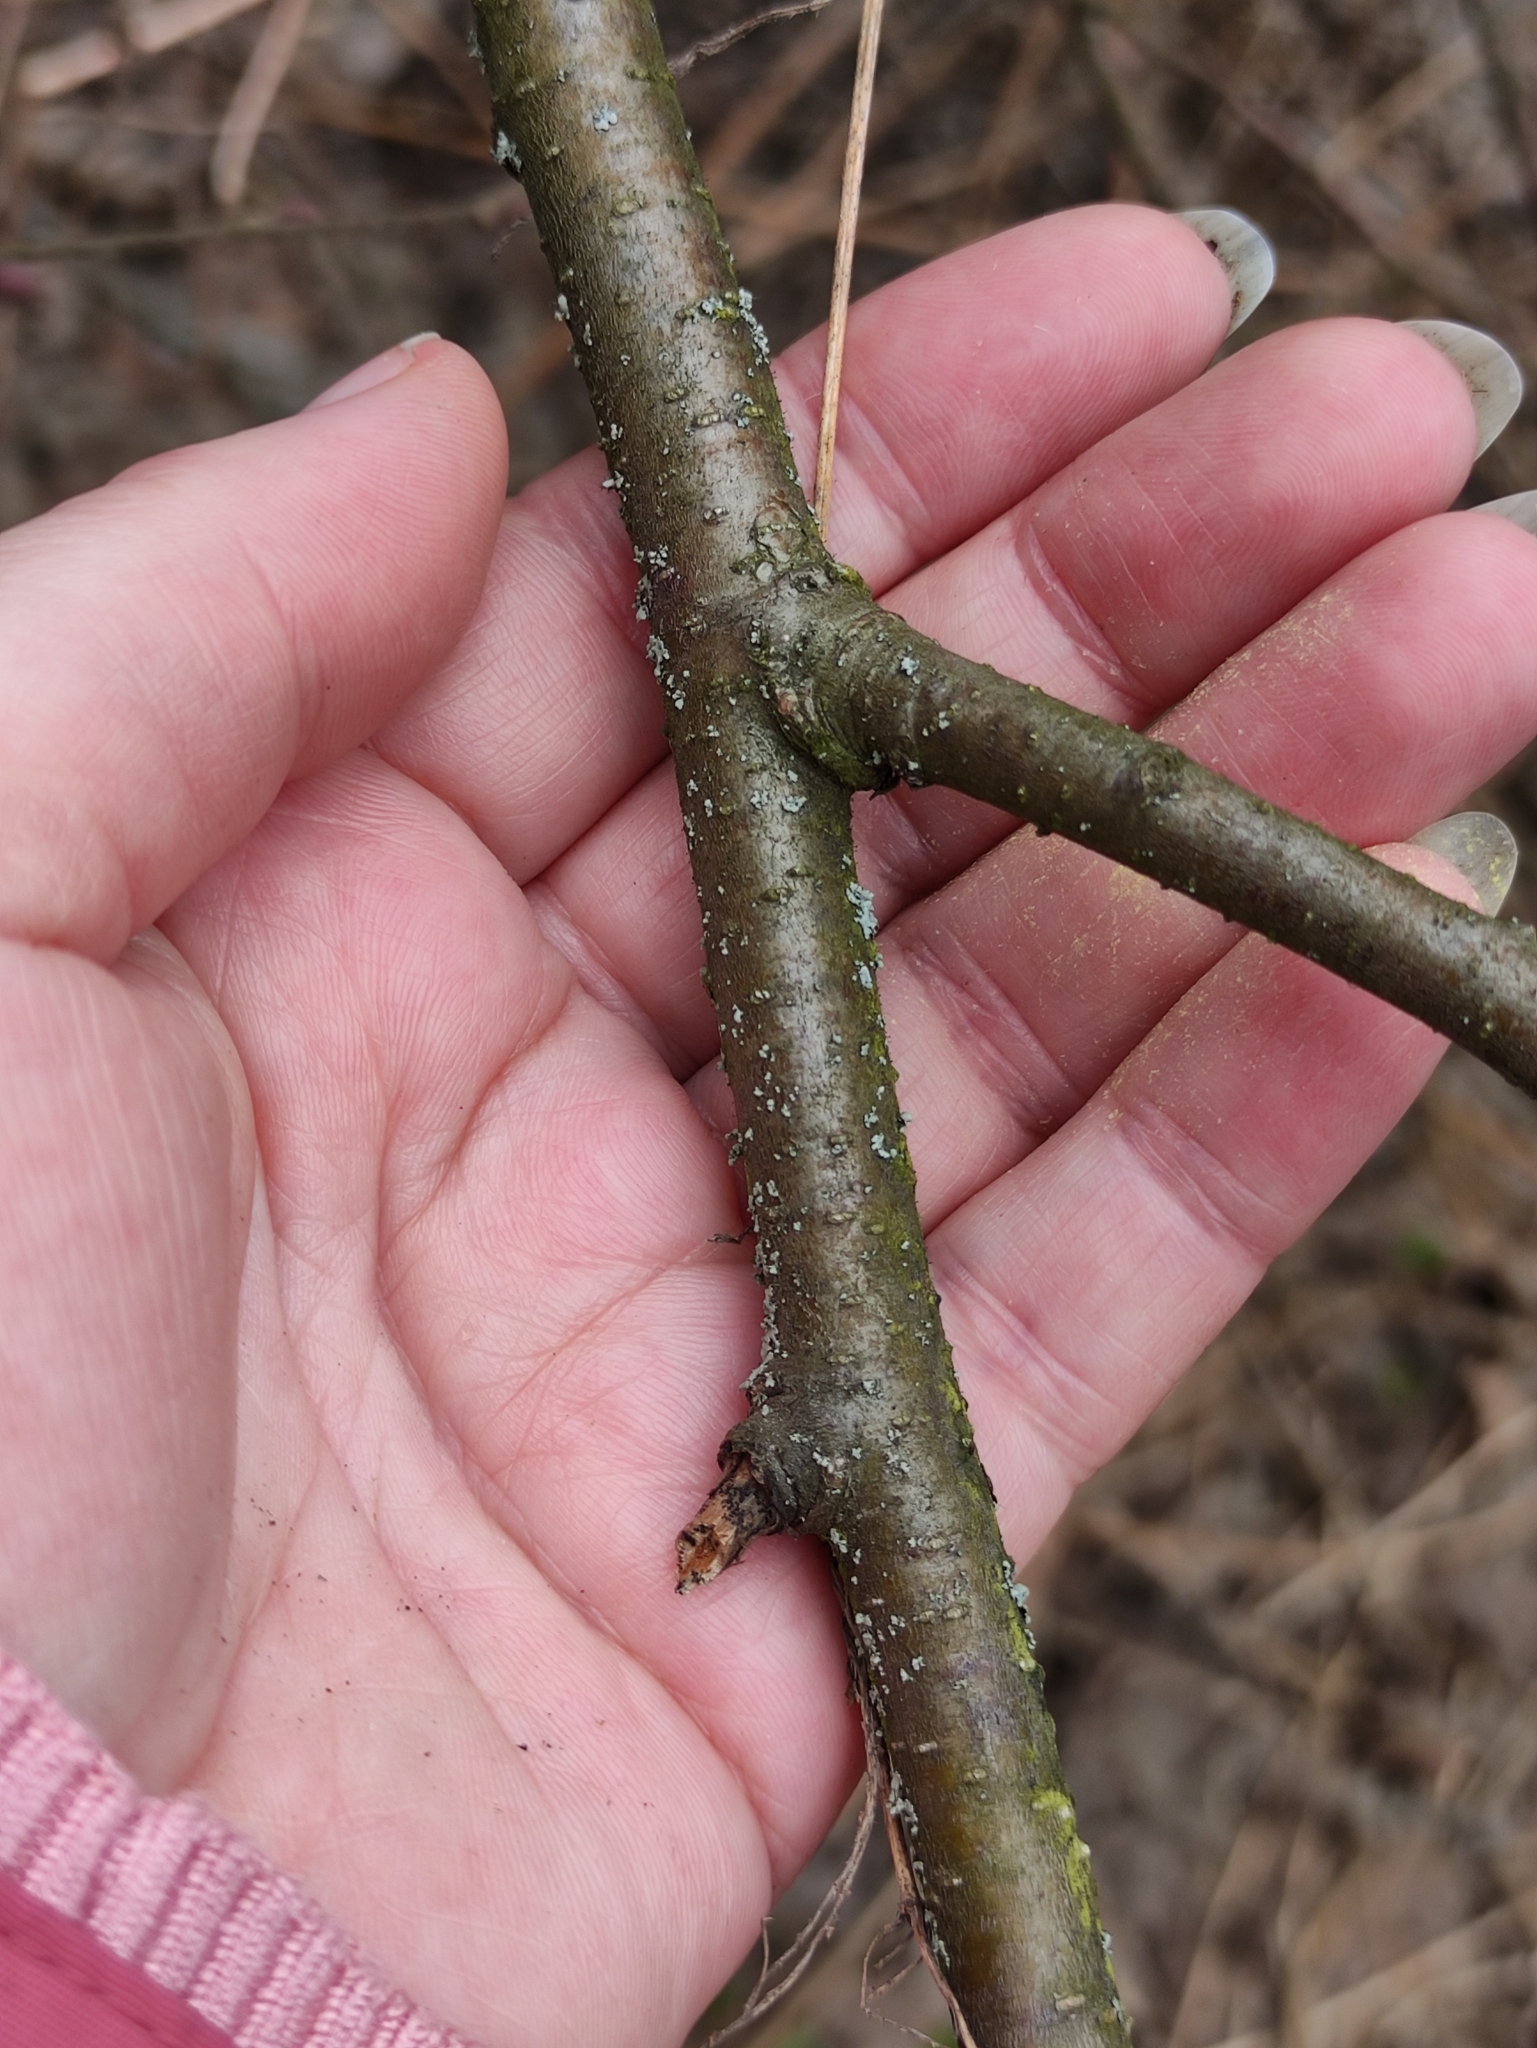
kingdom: Plantae
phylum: Tracheophyta
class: Magnoliopsida
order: Fagales
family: Betulaceae
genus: Alnus
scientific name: Alnus incana
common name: Grey alder
